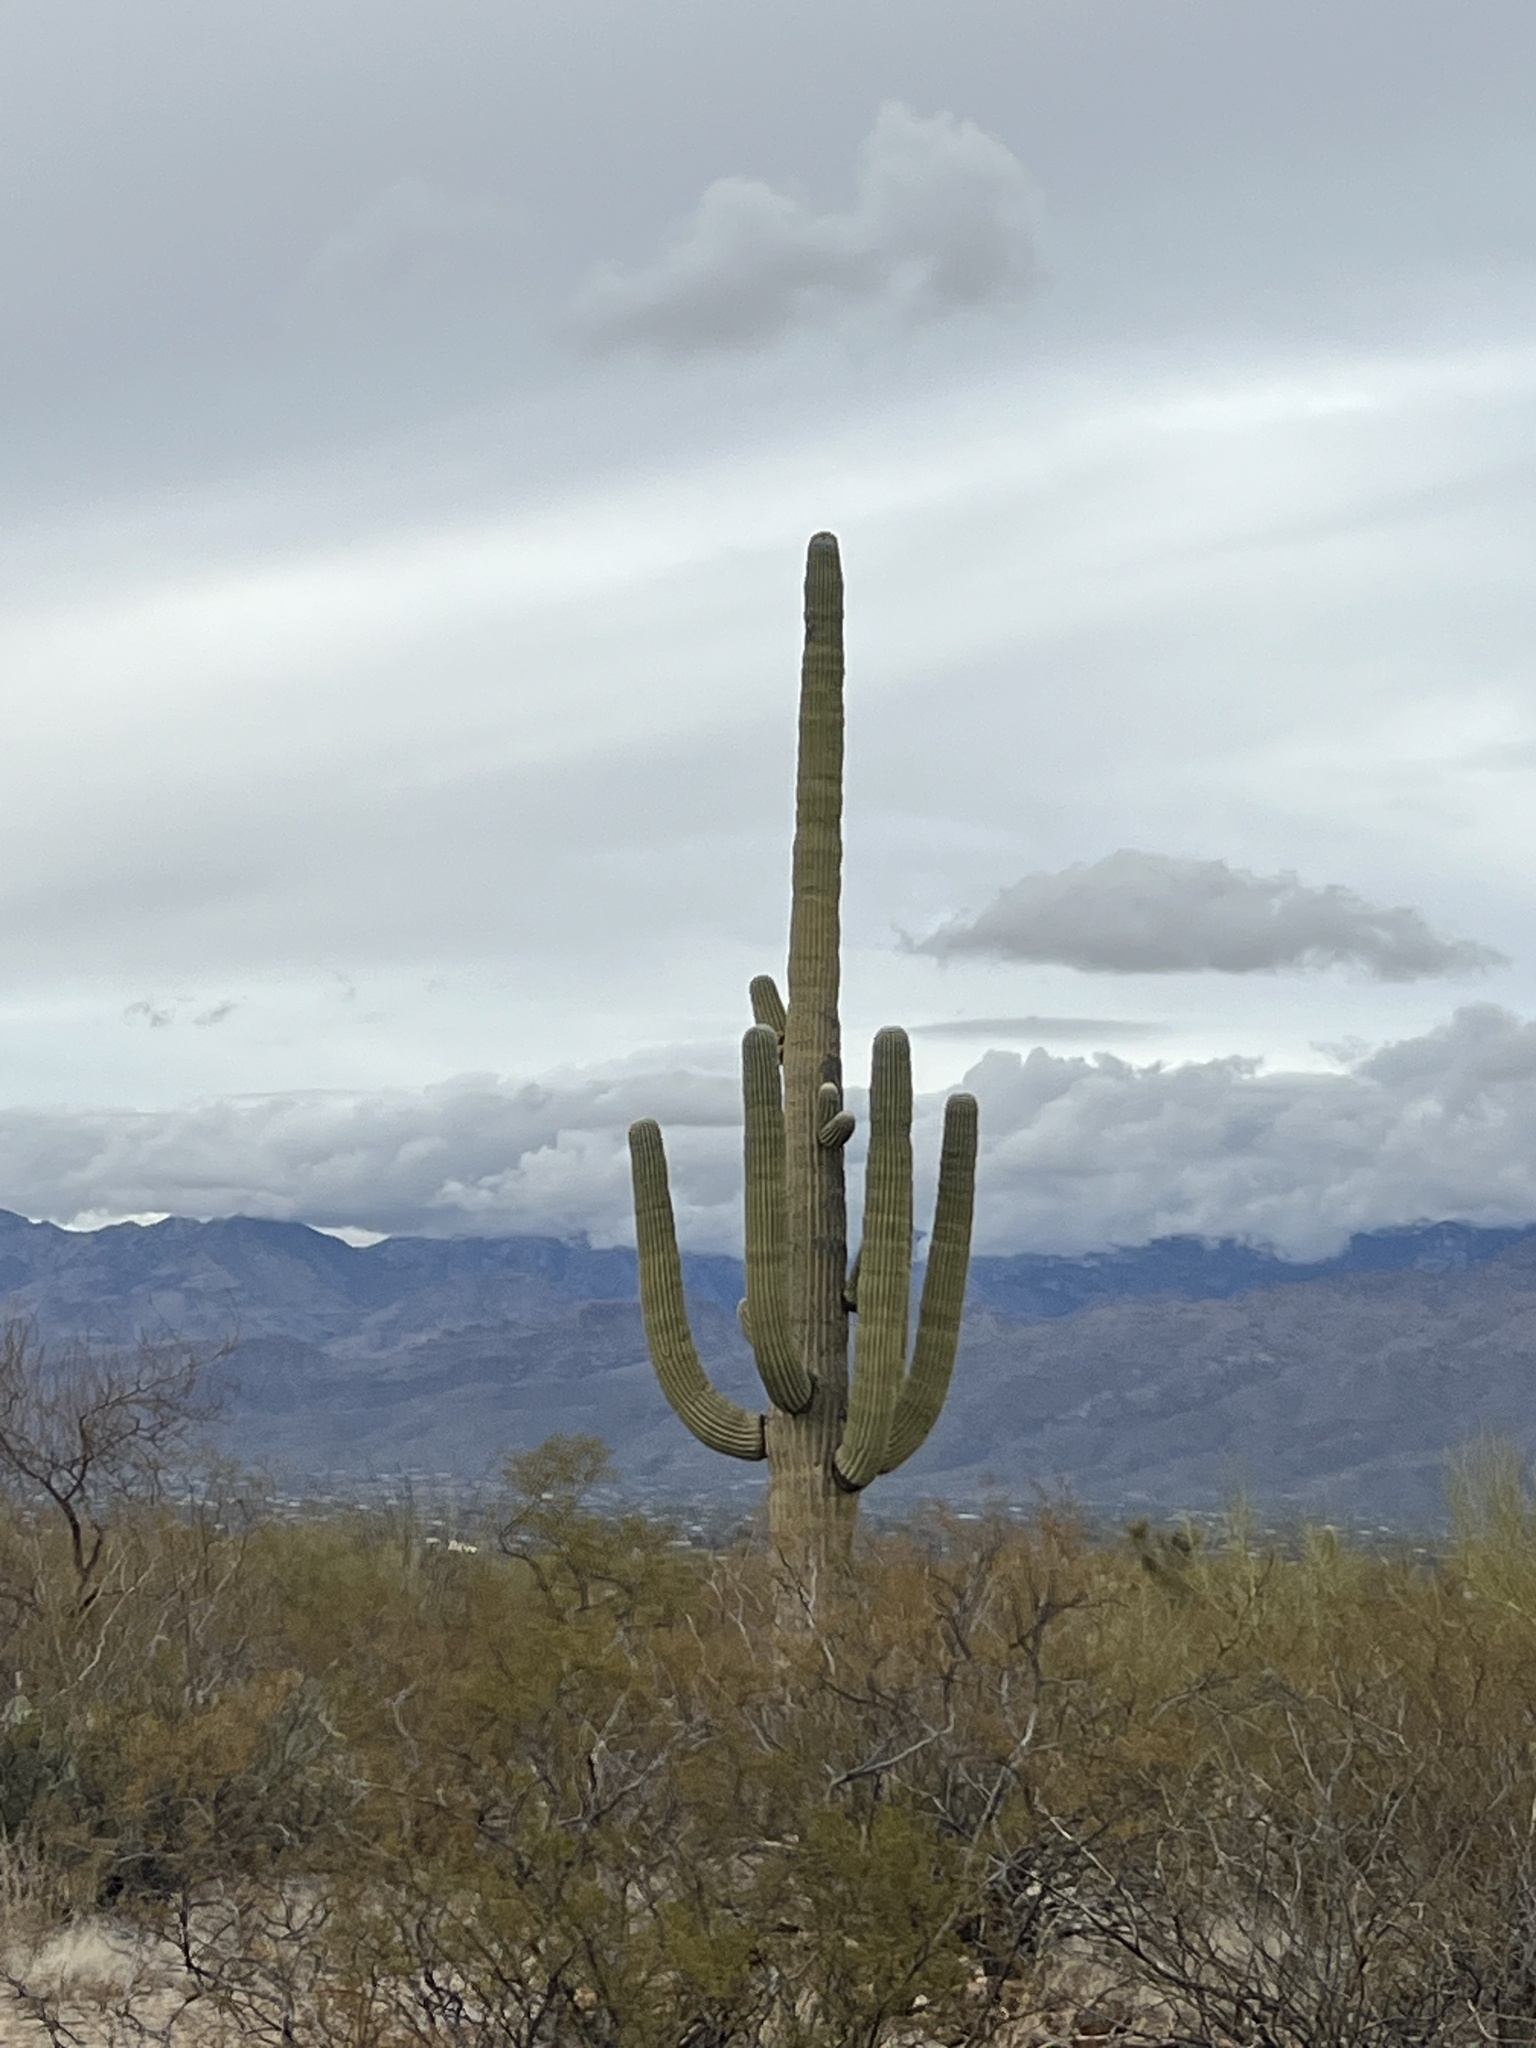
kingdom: Plantae
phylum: Tracheophyta
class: Magnoliopsida
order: Caryophyllales
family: Cactaceae
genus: Carnegiea
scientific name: Carnegiea gigantea
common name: Saguaro
